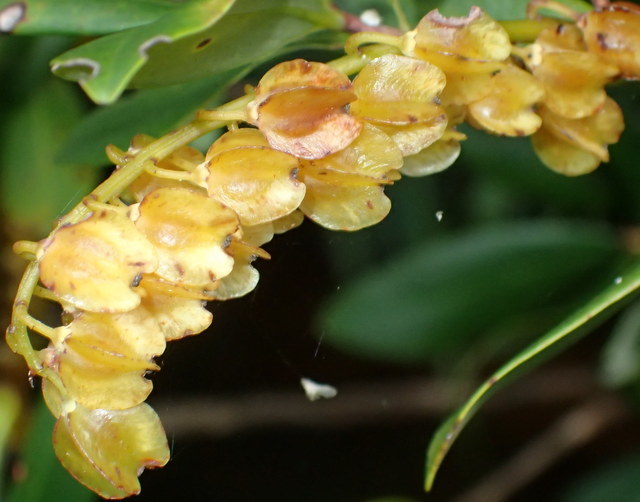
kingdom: Plantae
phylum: Tracheophyta
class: Magnoliopsida
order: Ericales
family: Cyrillaceae
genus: Cliftonia
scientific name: Cliftonia monophylla
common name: Titi
